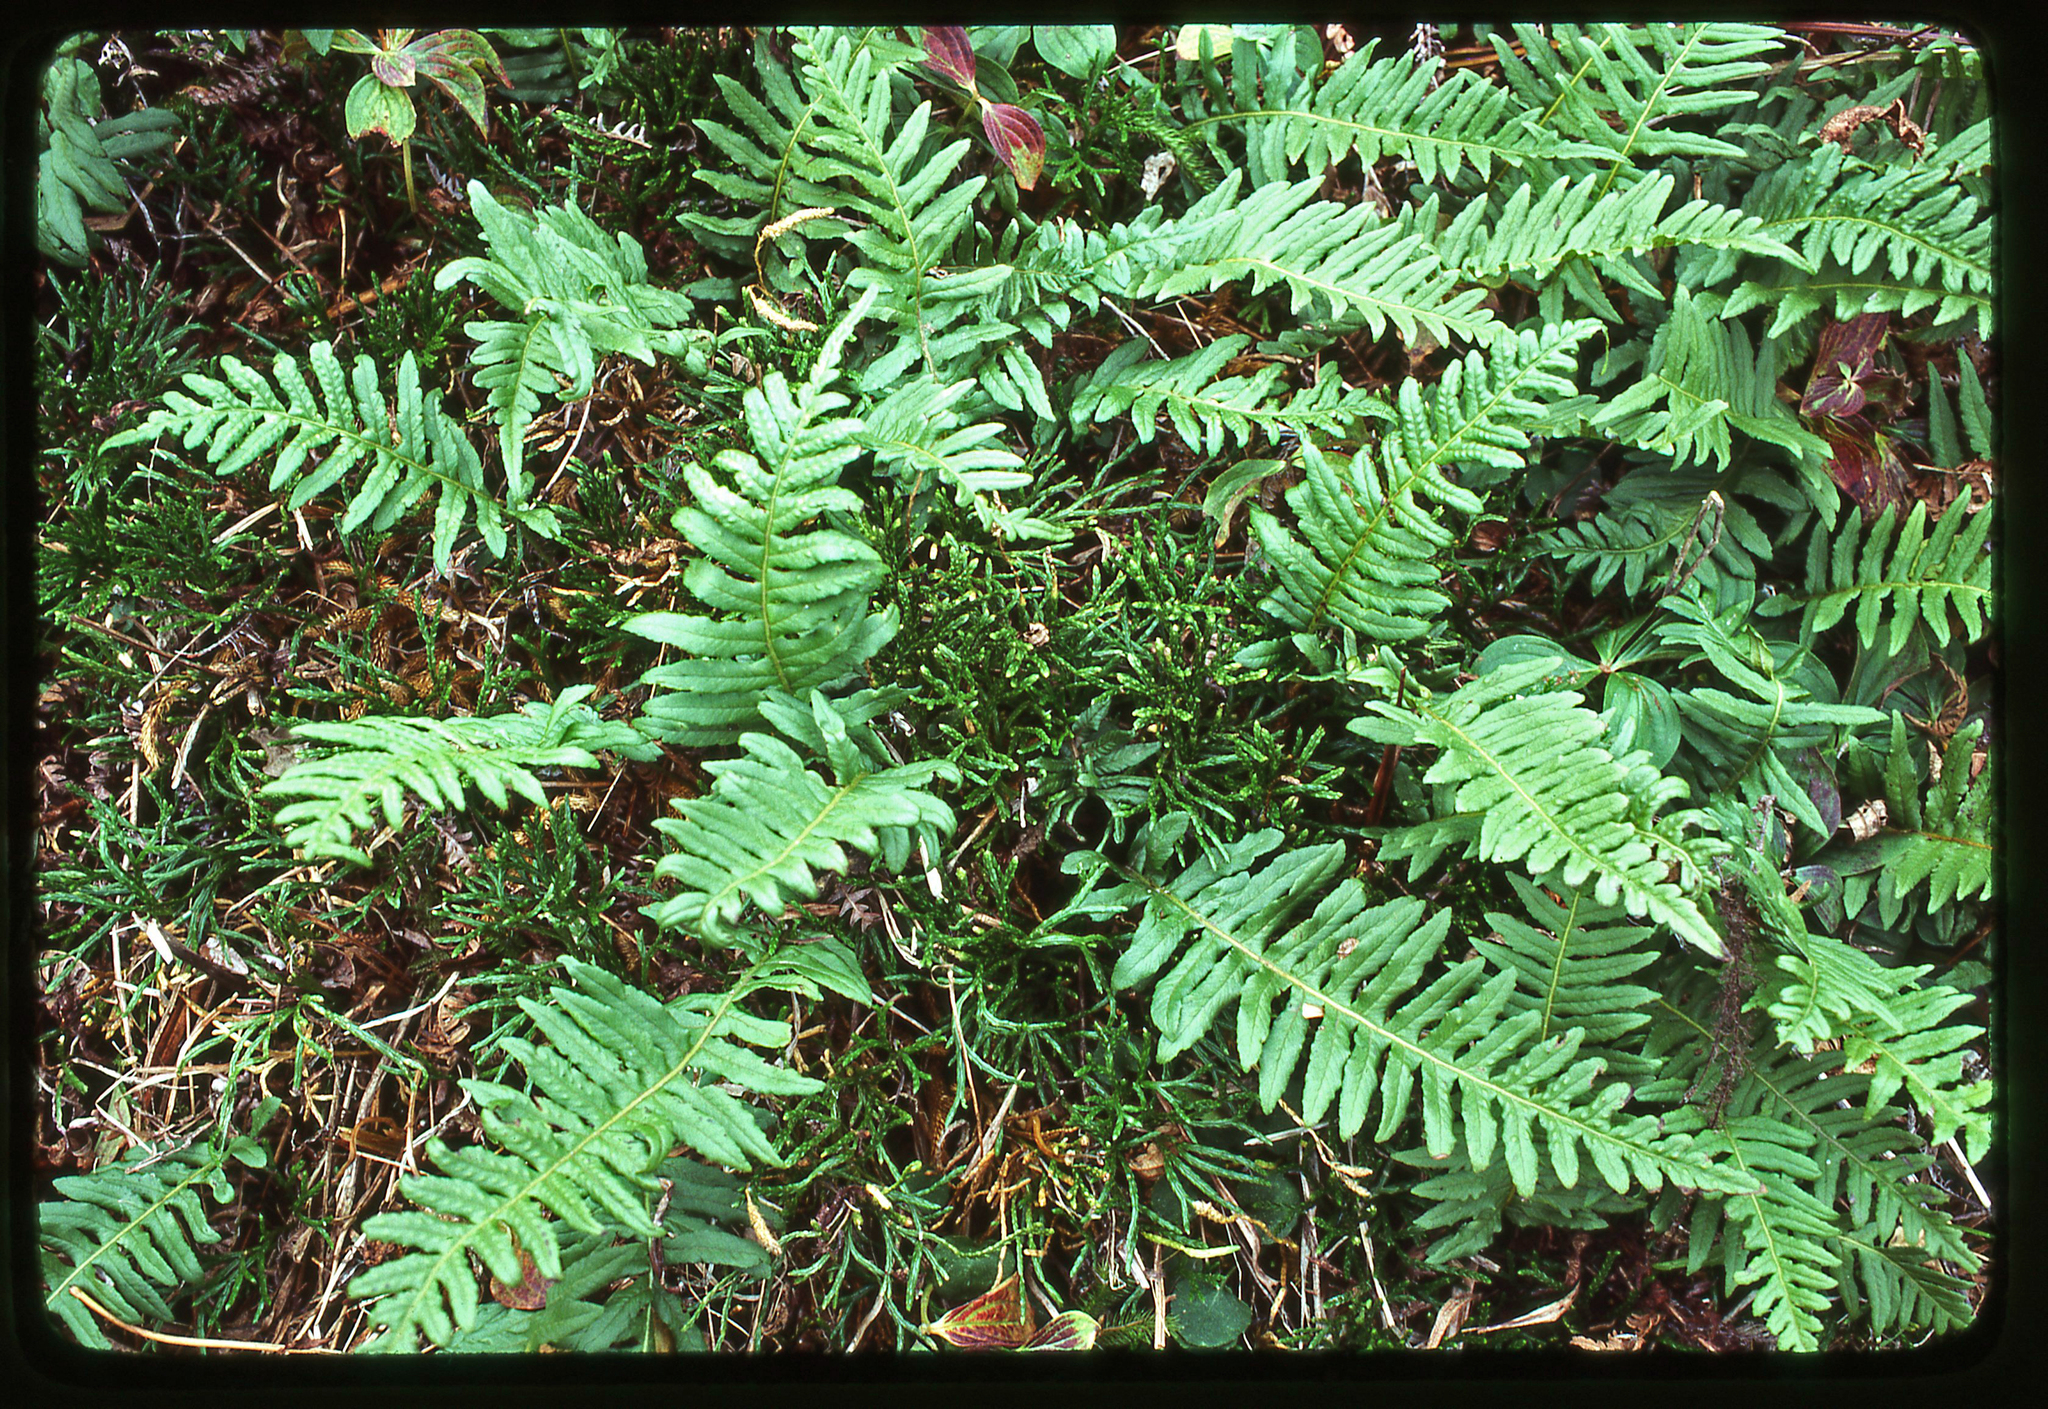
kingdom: Plantae
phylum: Tracheophyta
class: Lycopodiopsida
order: Lycopodiales
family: Lycopodiaceae
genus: Diphasiastrum
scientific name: Diphasiastrum complanatum
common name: Northern running-pine
